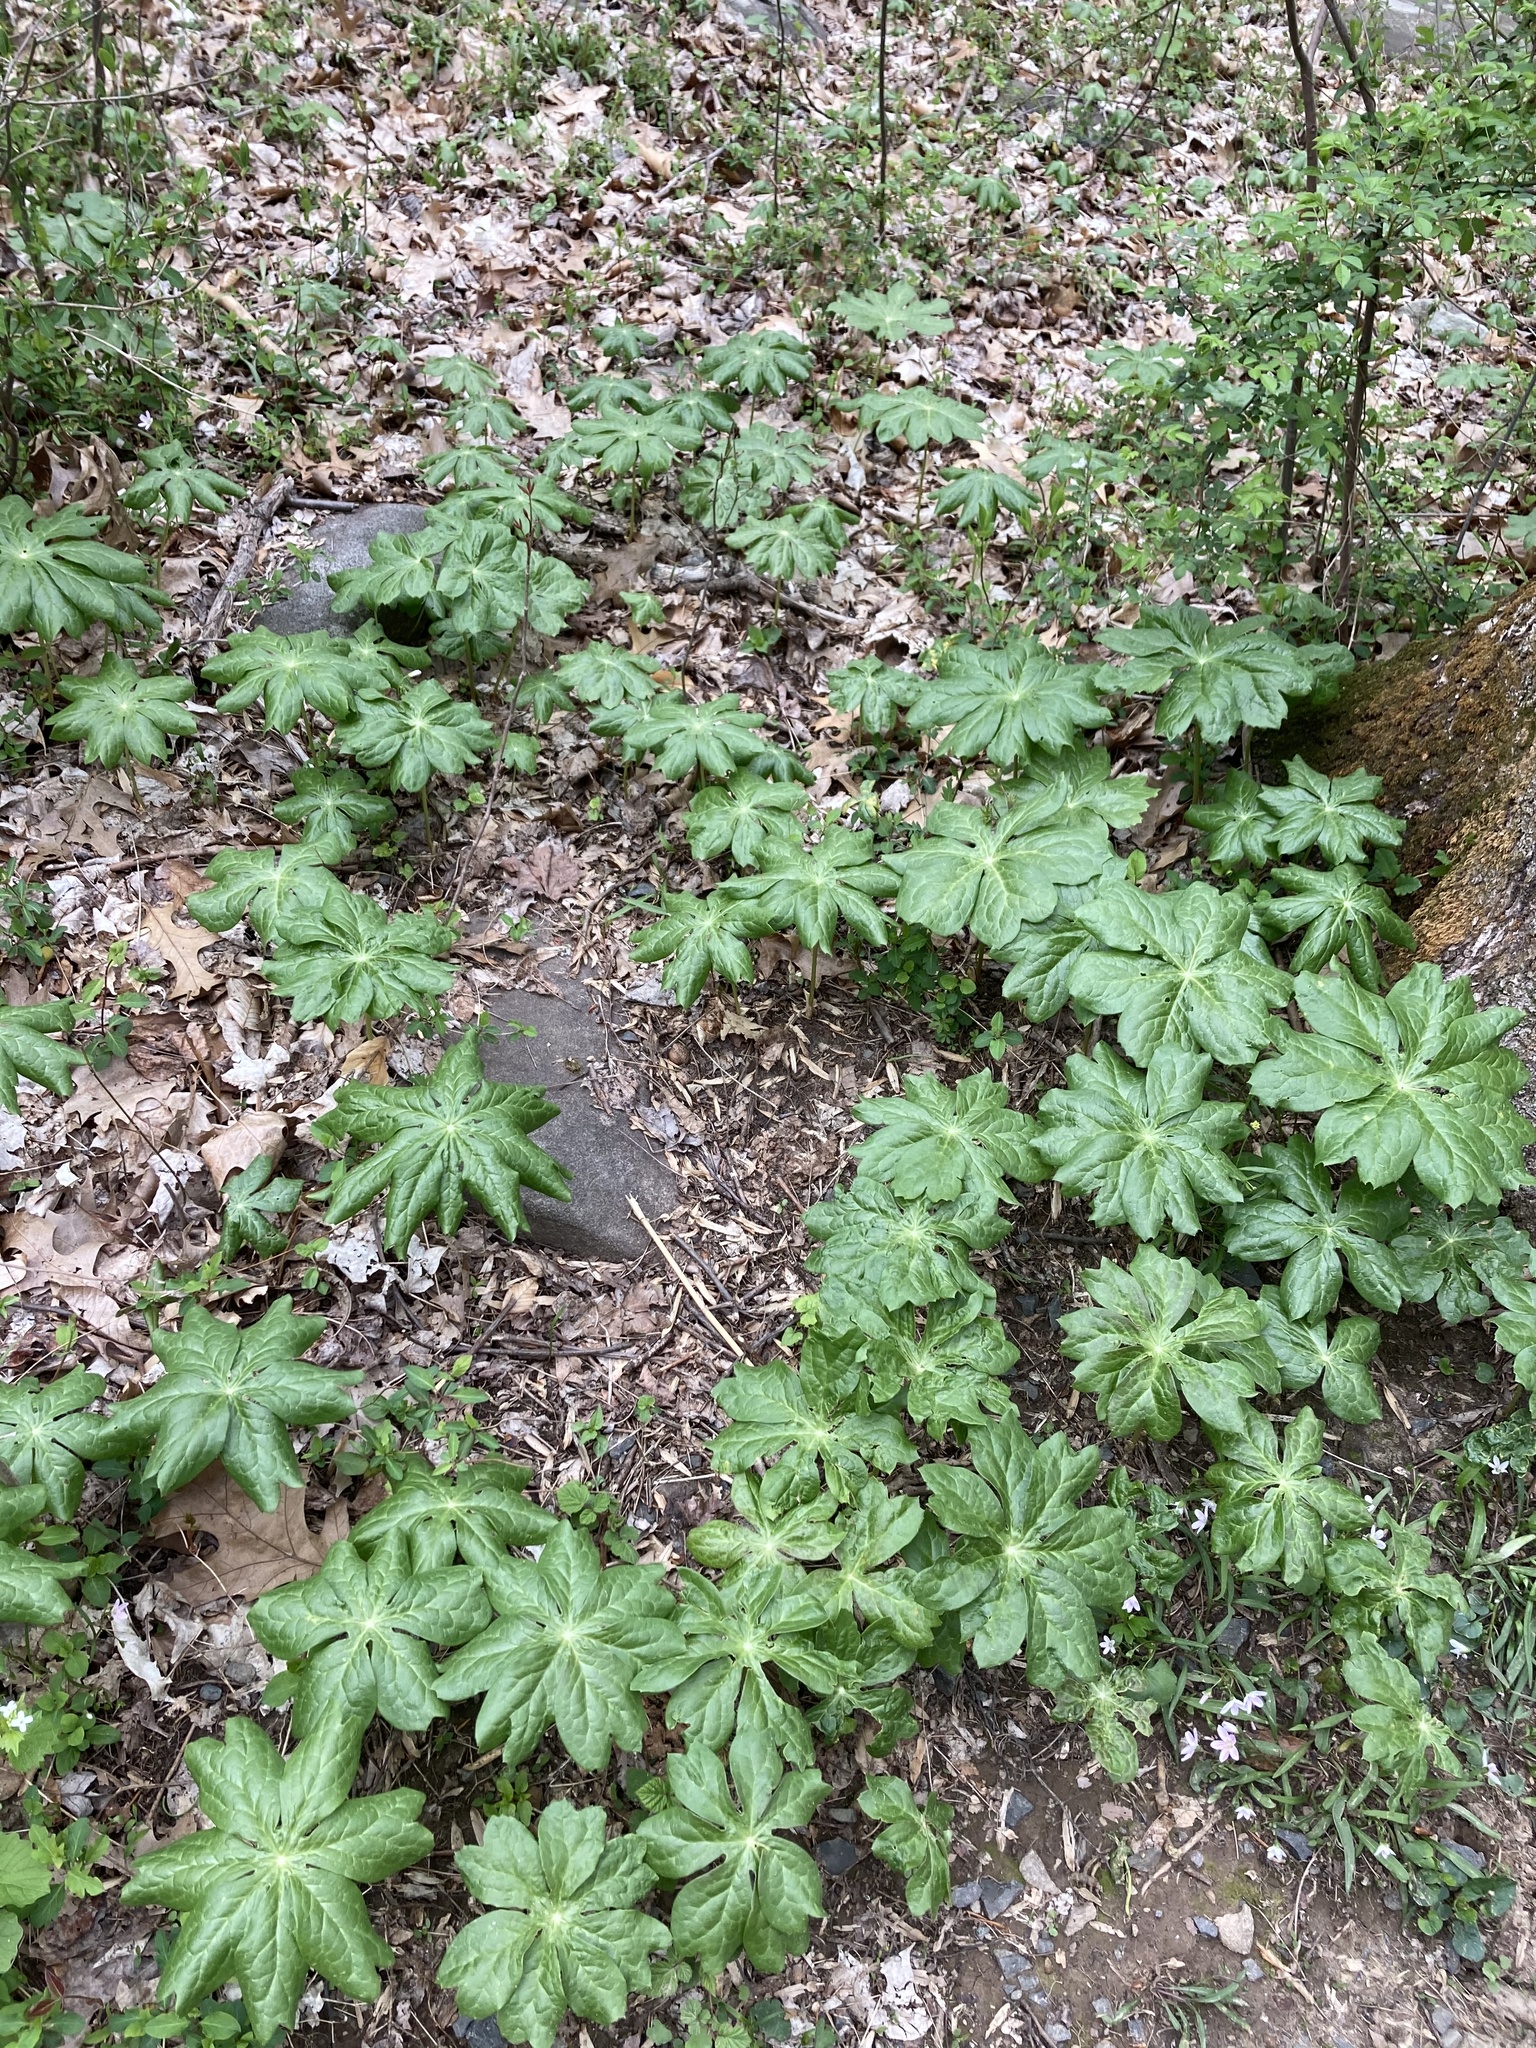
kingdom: Plantae
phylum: Tracheophyta
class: Magnoliopsida
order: Ranunculales
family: Berberidaceae
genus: Podophyllum
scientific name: Podophyllum peltatum
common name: Wild mandrake
